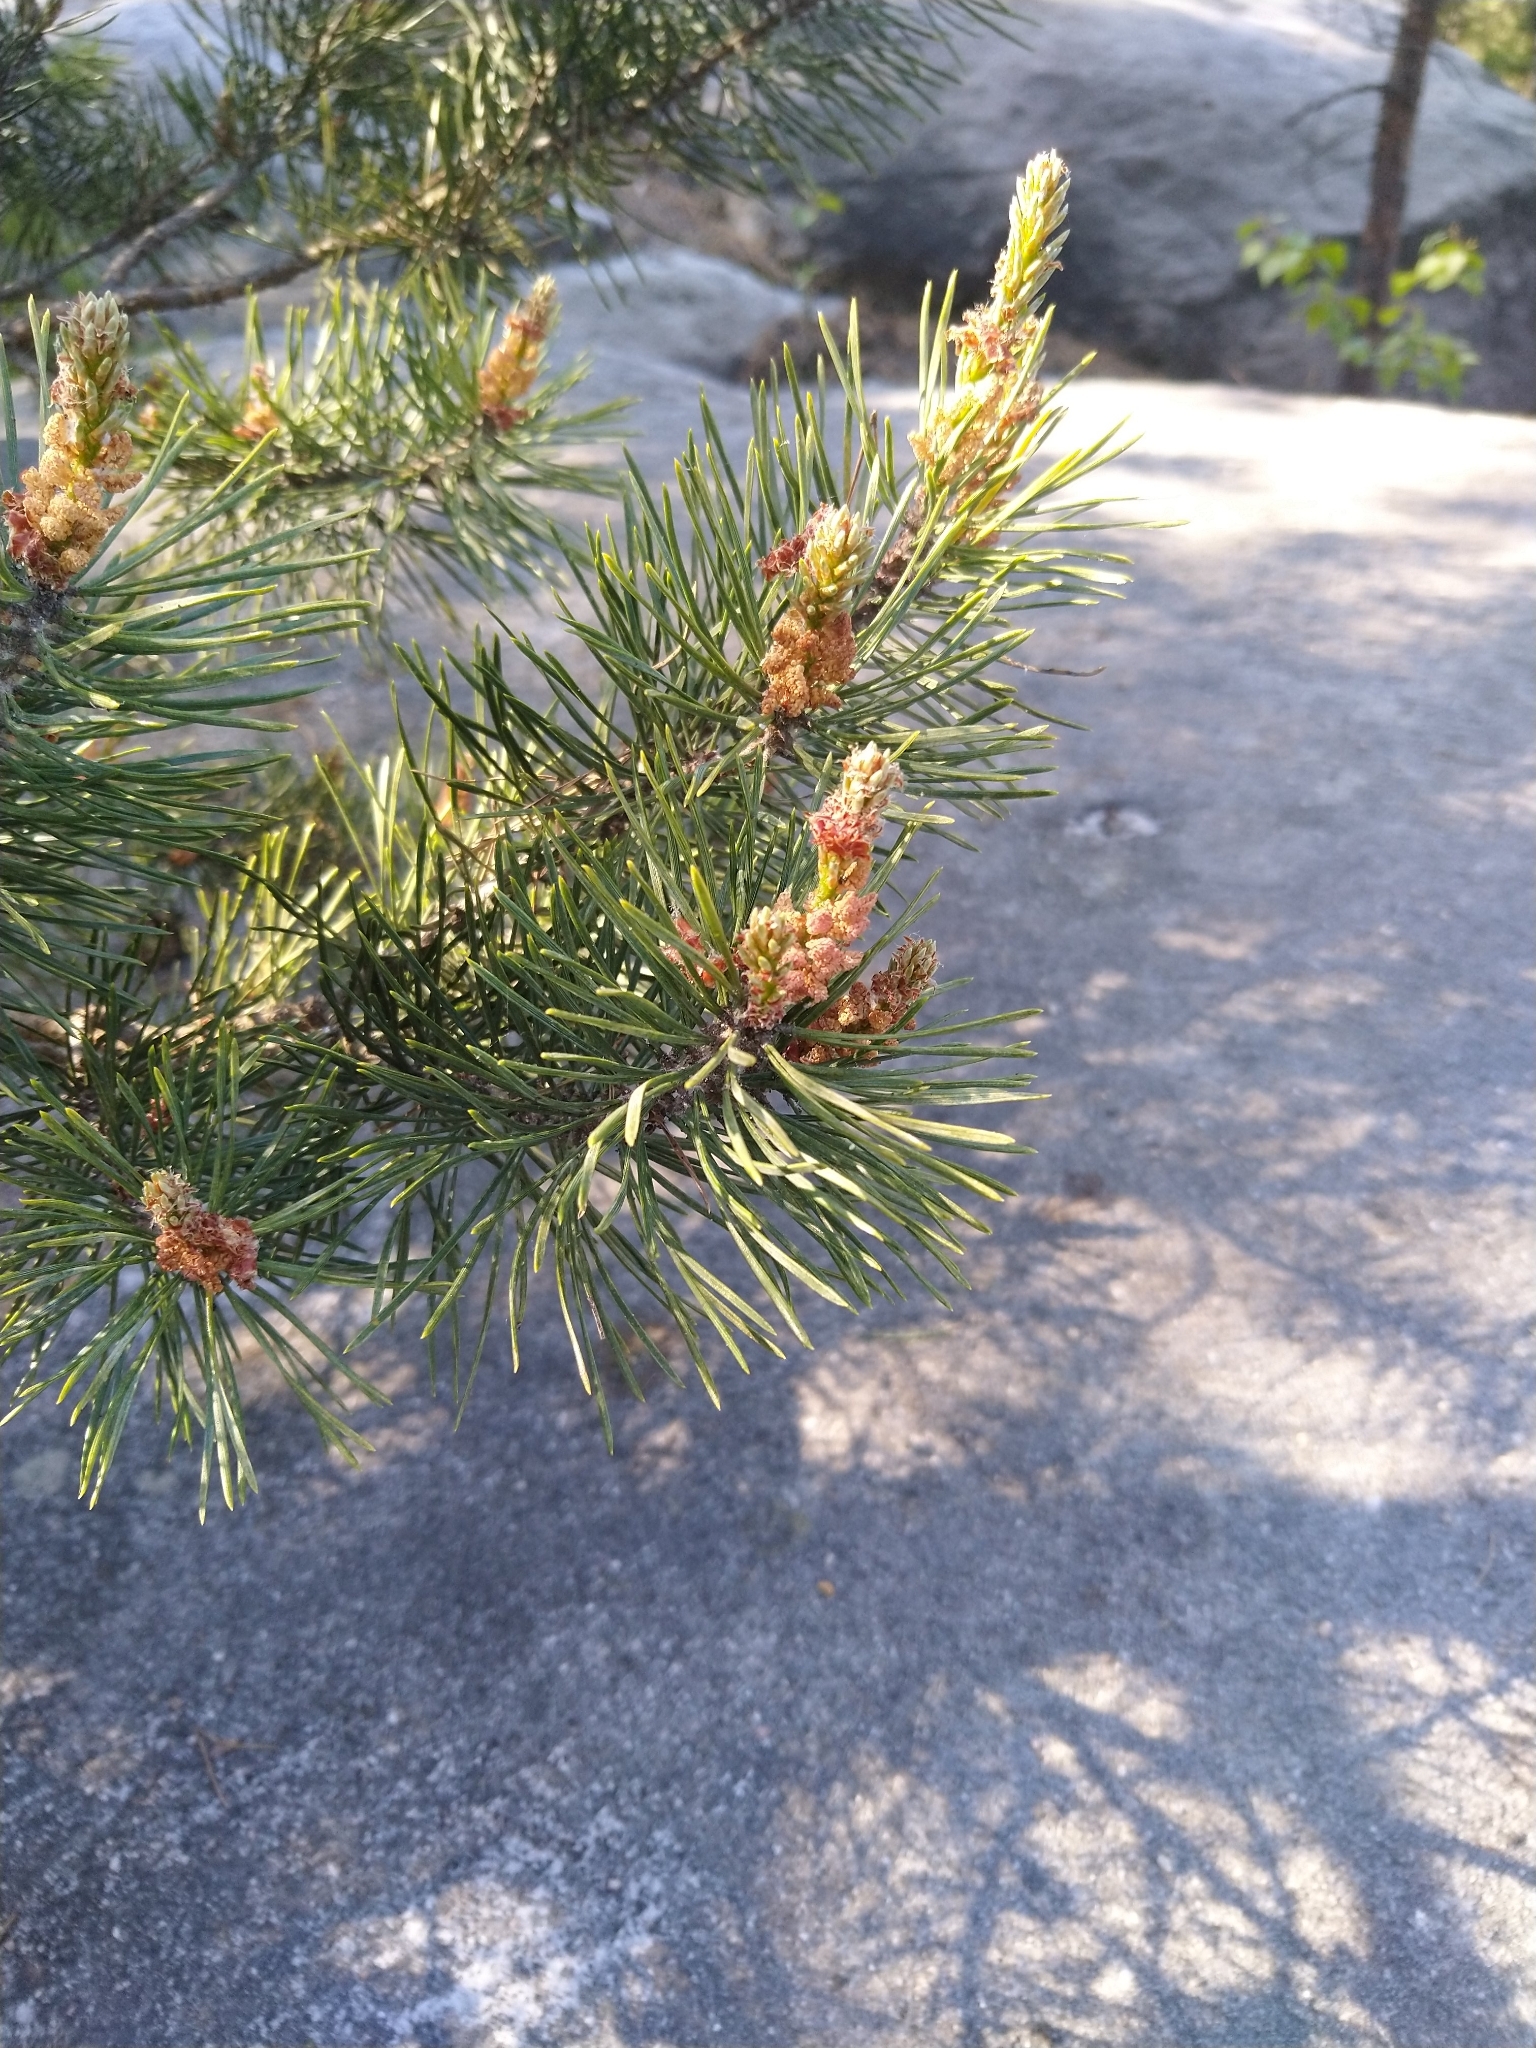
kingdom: Plantae
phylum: Tracheophyta
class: Pinopsida
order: Pinales
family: Pinaceae
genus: Pinus
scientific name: Pinus sylvestris
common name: Scots pine
